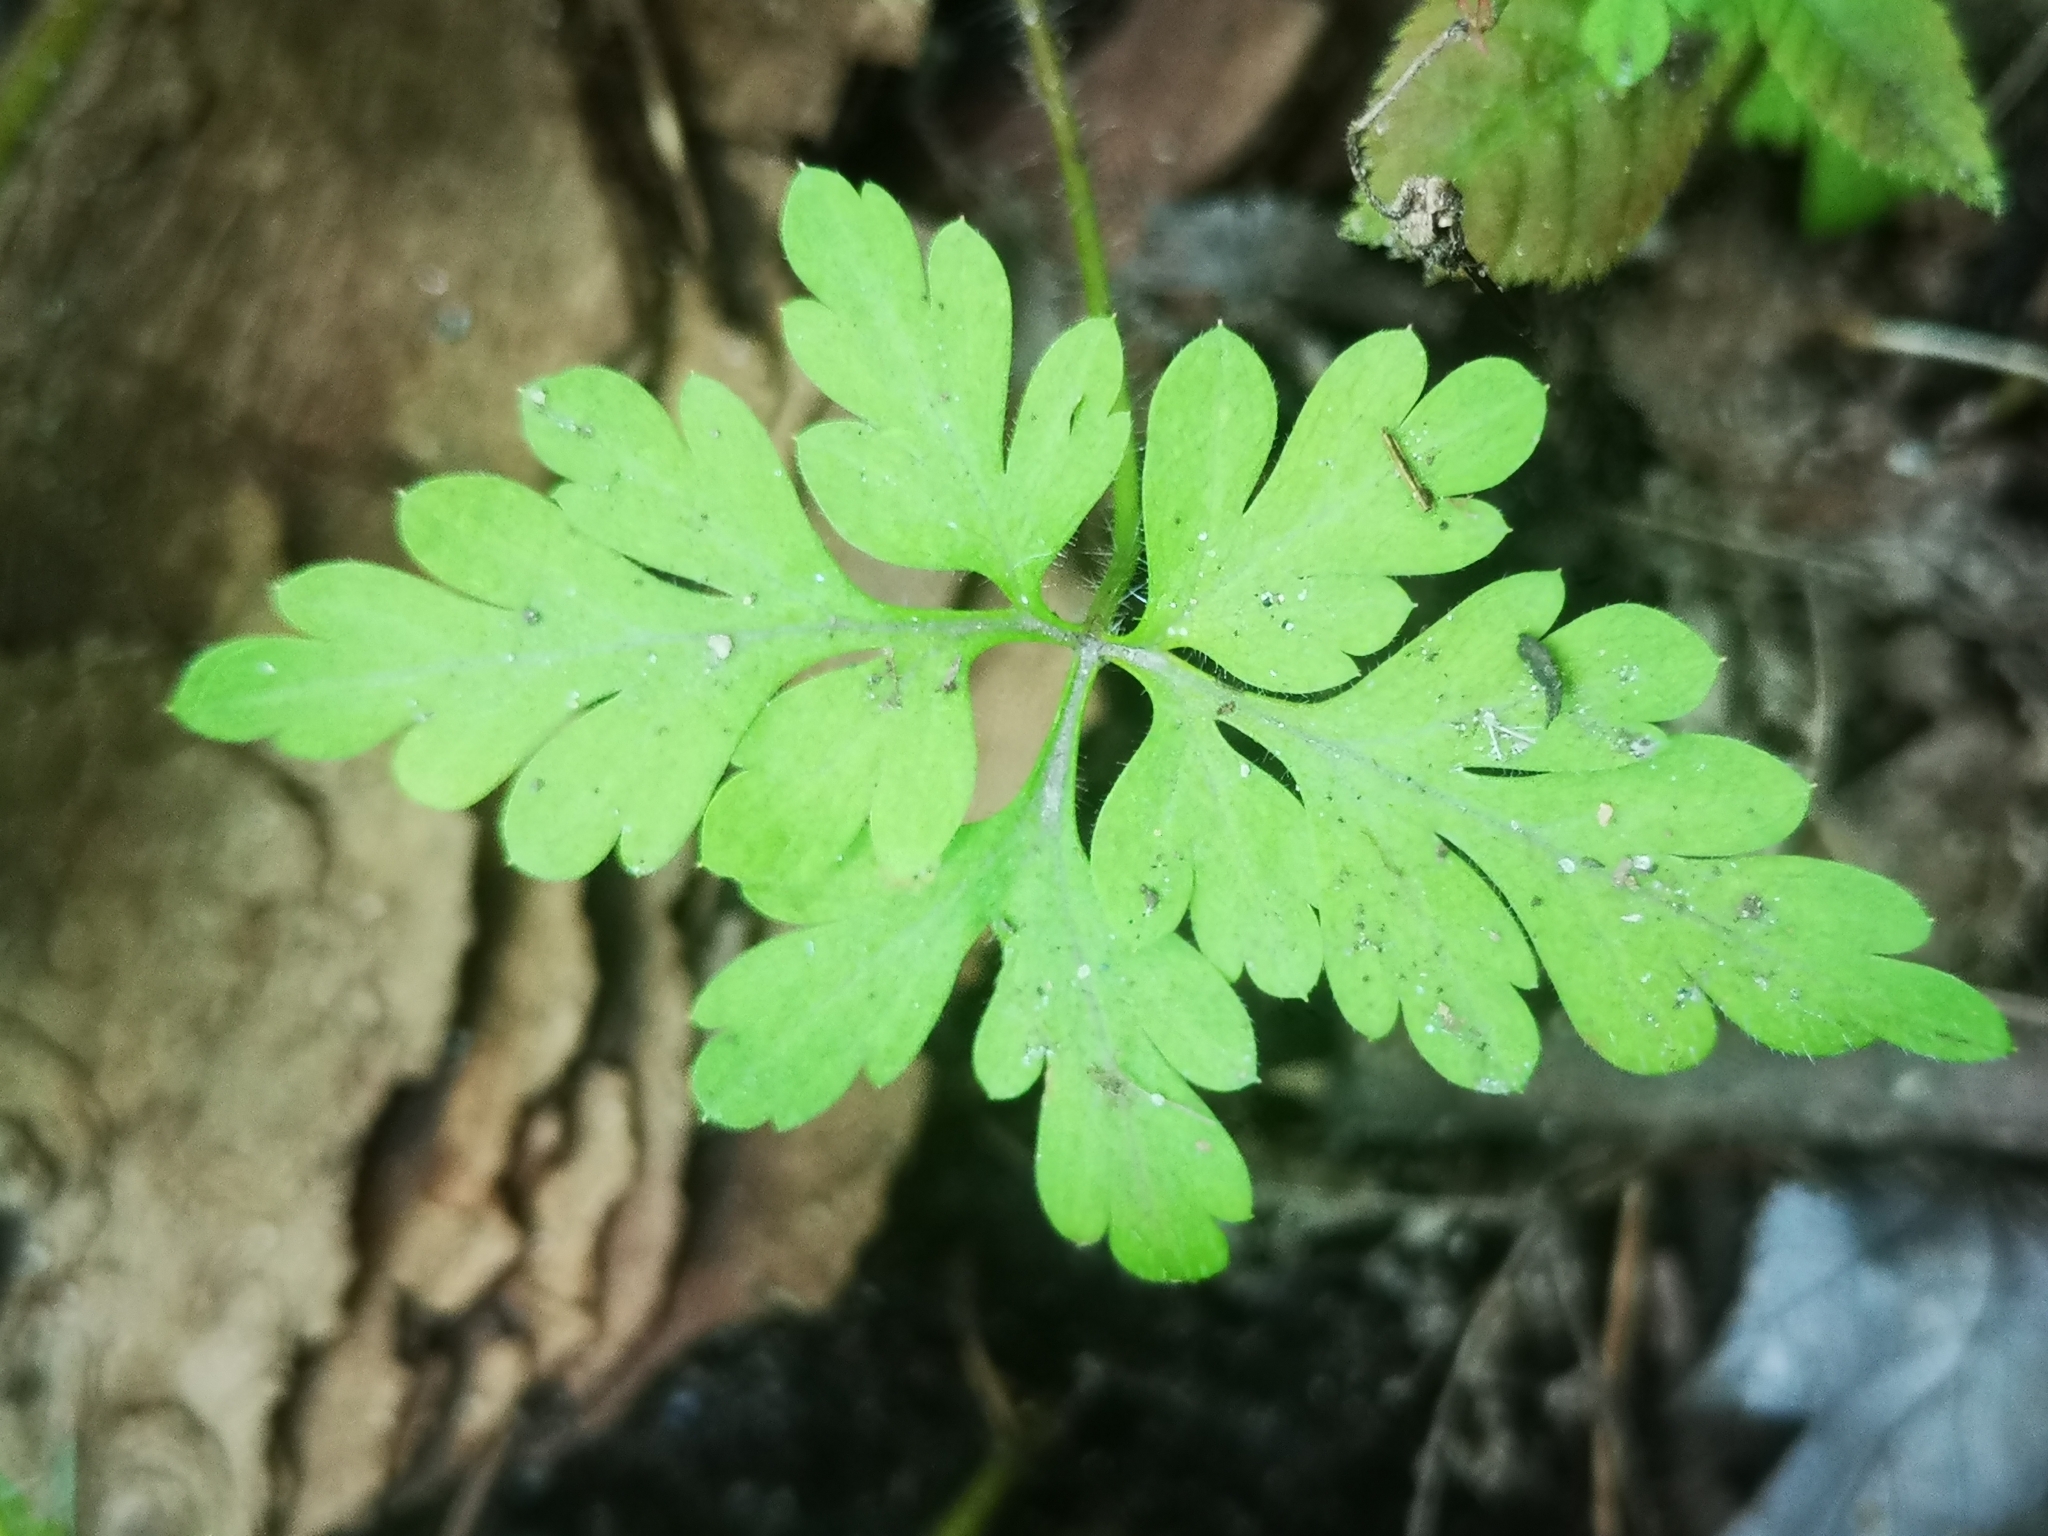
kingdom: Plantae
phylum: Tracheophyta
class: Magnoliopsida
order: Geraniales
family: Geraniaceae
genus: Geranium
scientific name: Geranium robertianum
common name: Herb-robert
